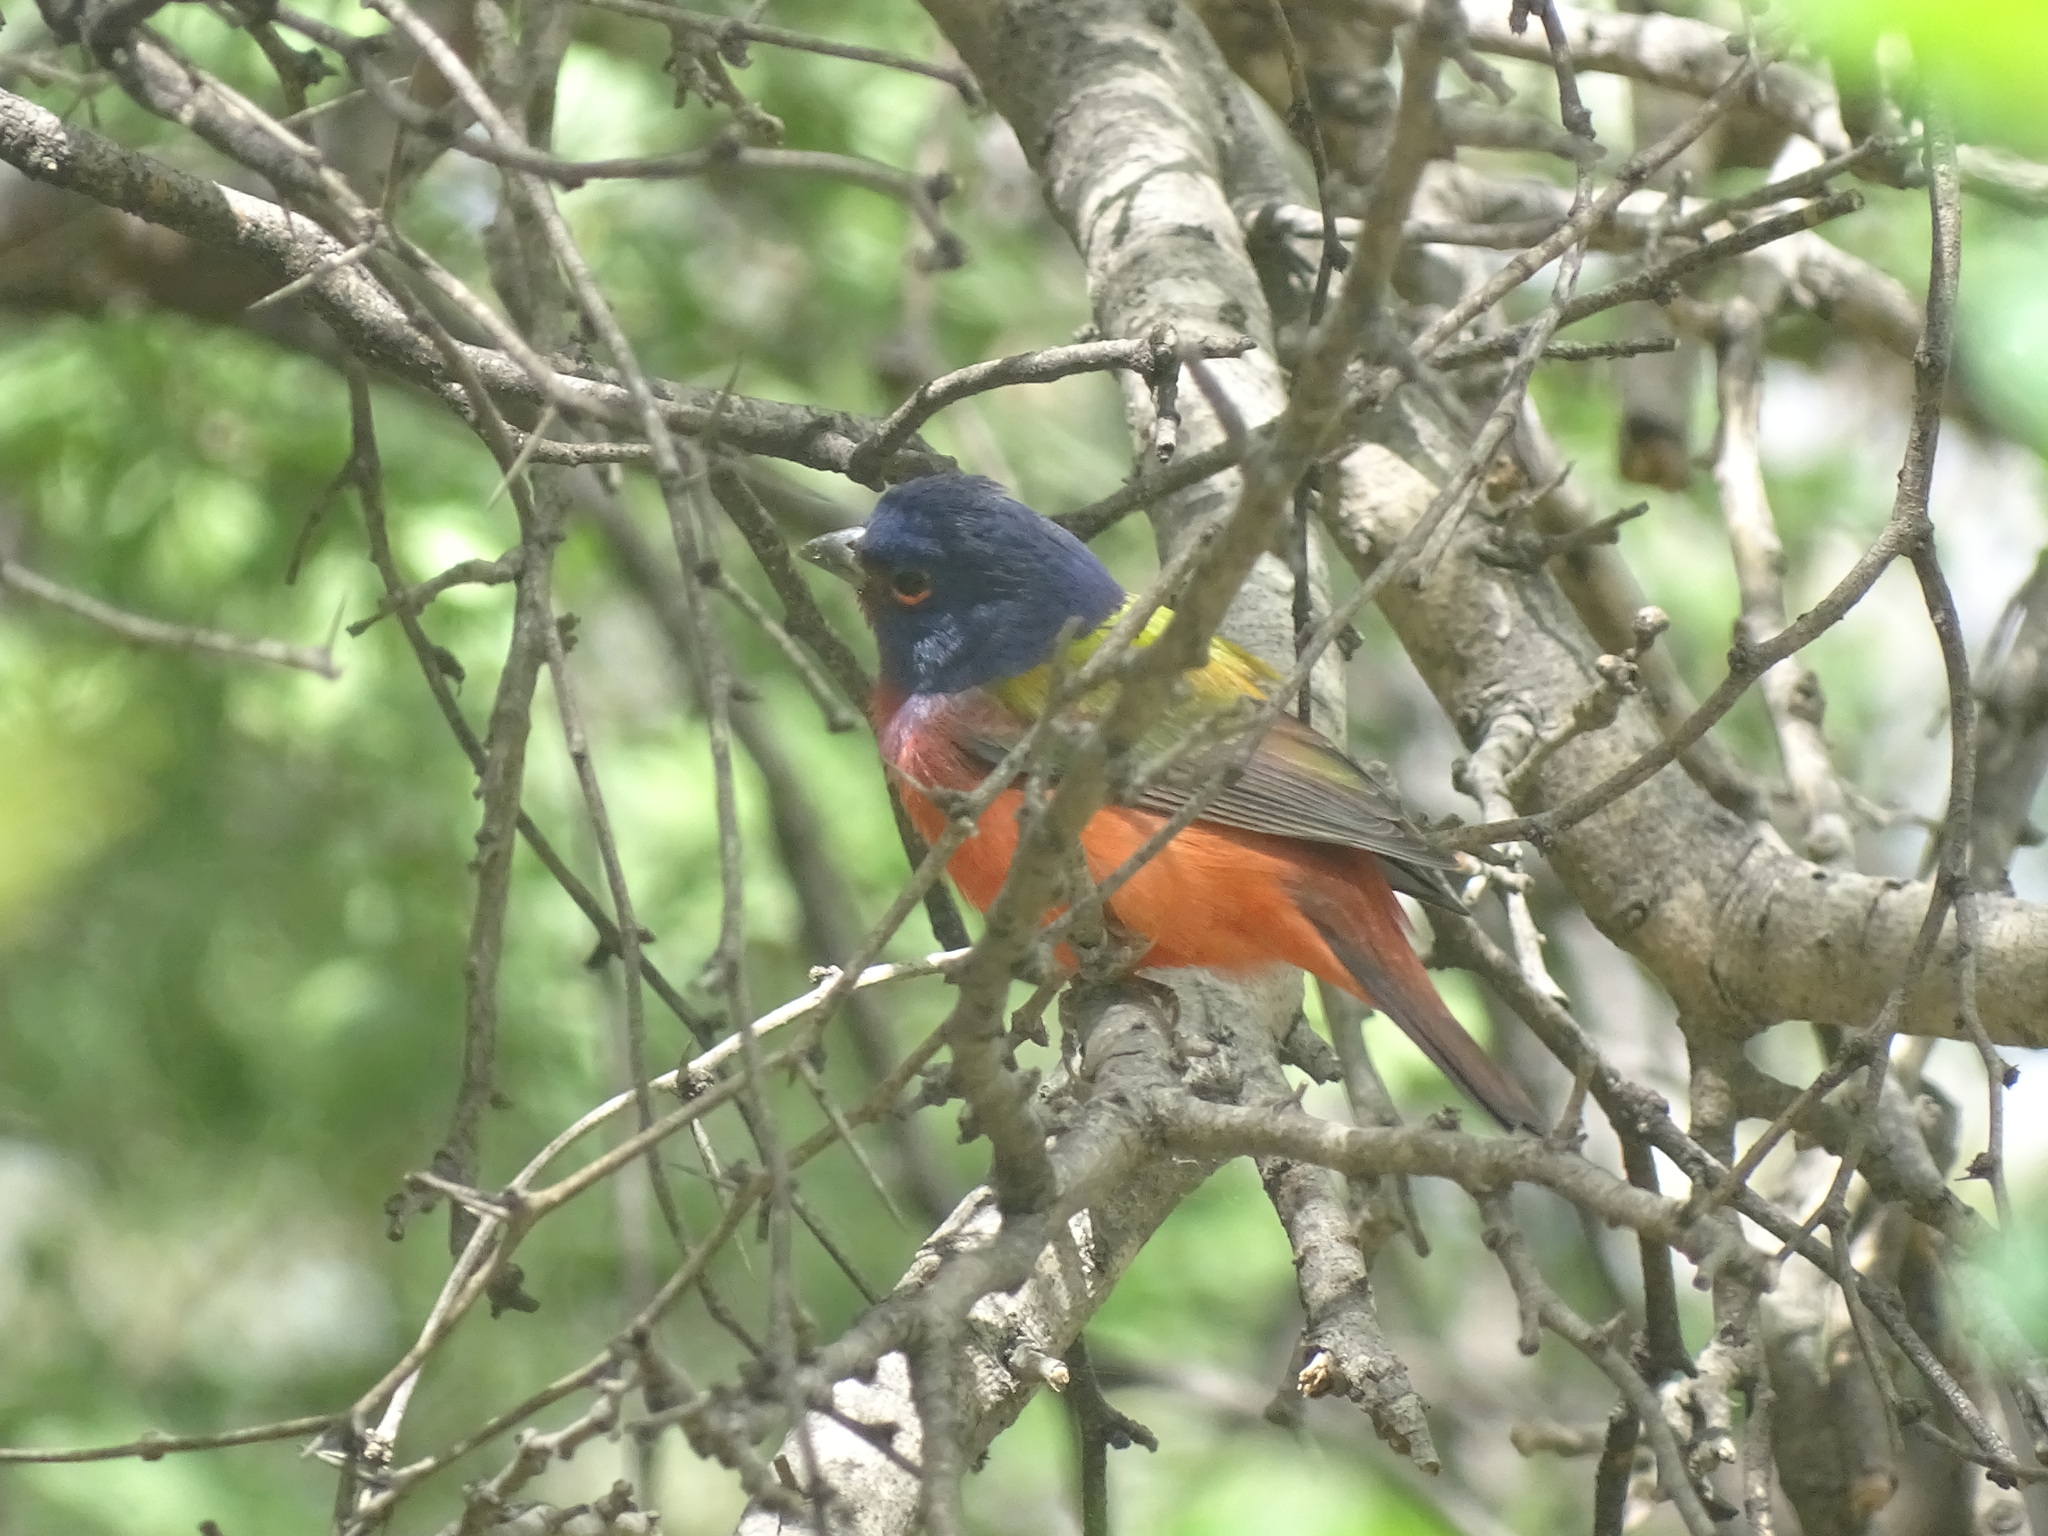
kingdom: Animalia
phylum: Chordata
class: Aves
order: Passeriformes
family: Cardinalidae
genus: Passerina
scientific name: Passerina ciris
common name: Painted bunting
